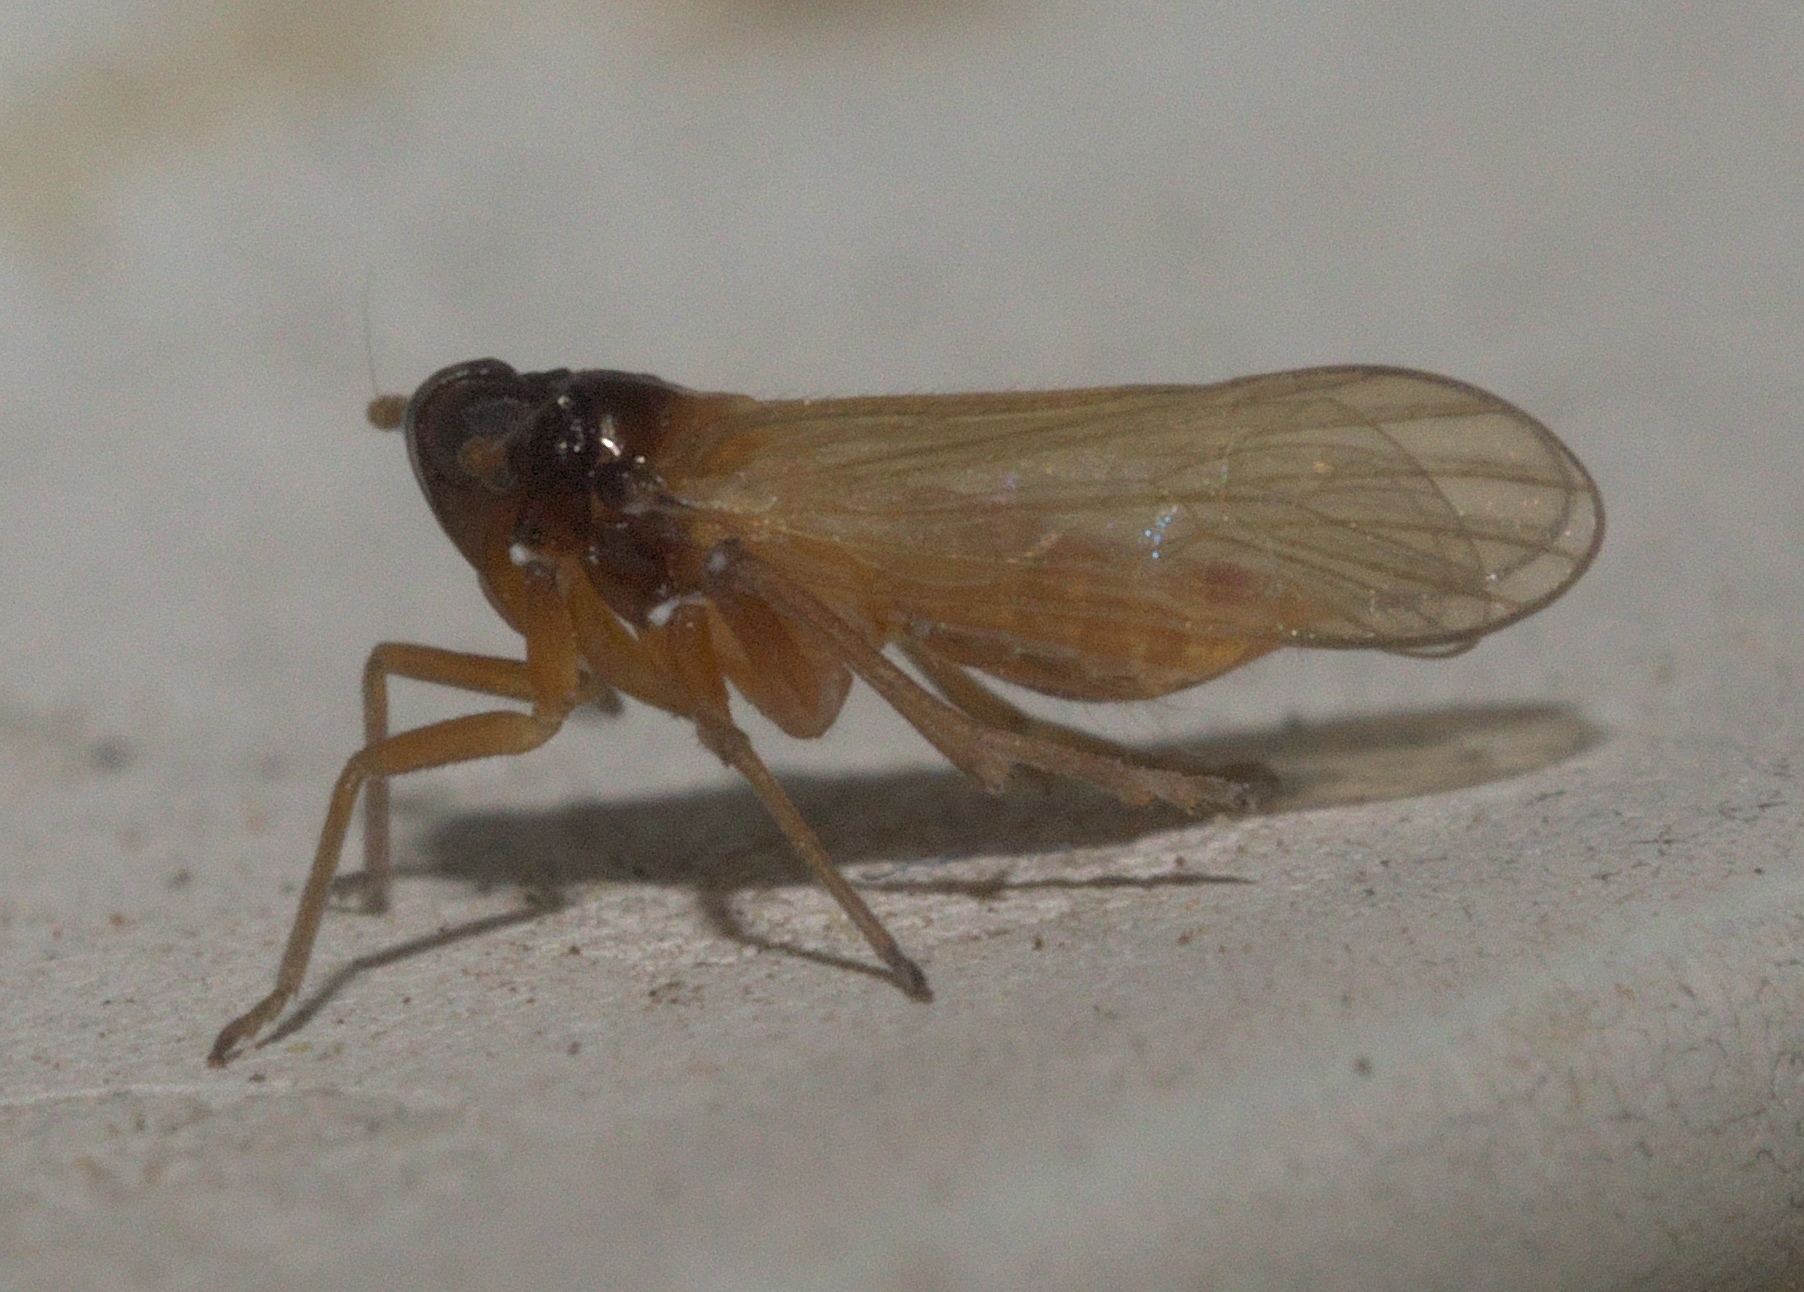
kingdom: Animalia
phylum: Arthropoda
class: Insecta
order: Hemiptera
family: Delphacidae
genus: Penepissonotus
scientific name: Penepissonotus bicolor
